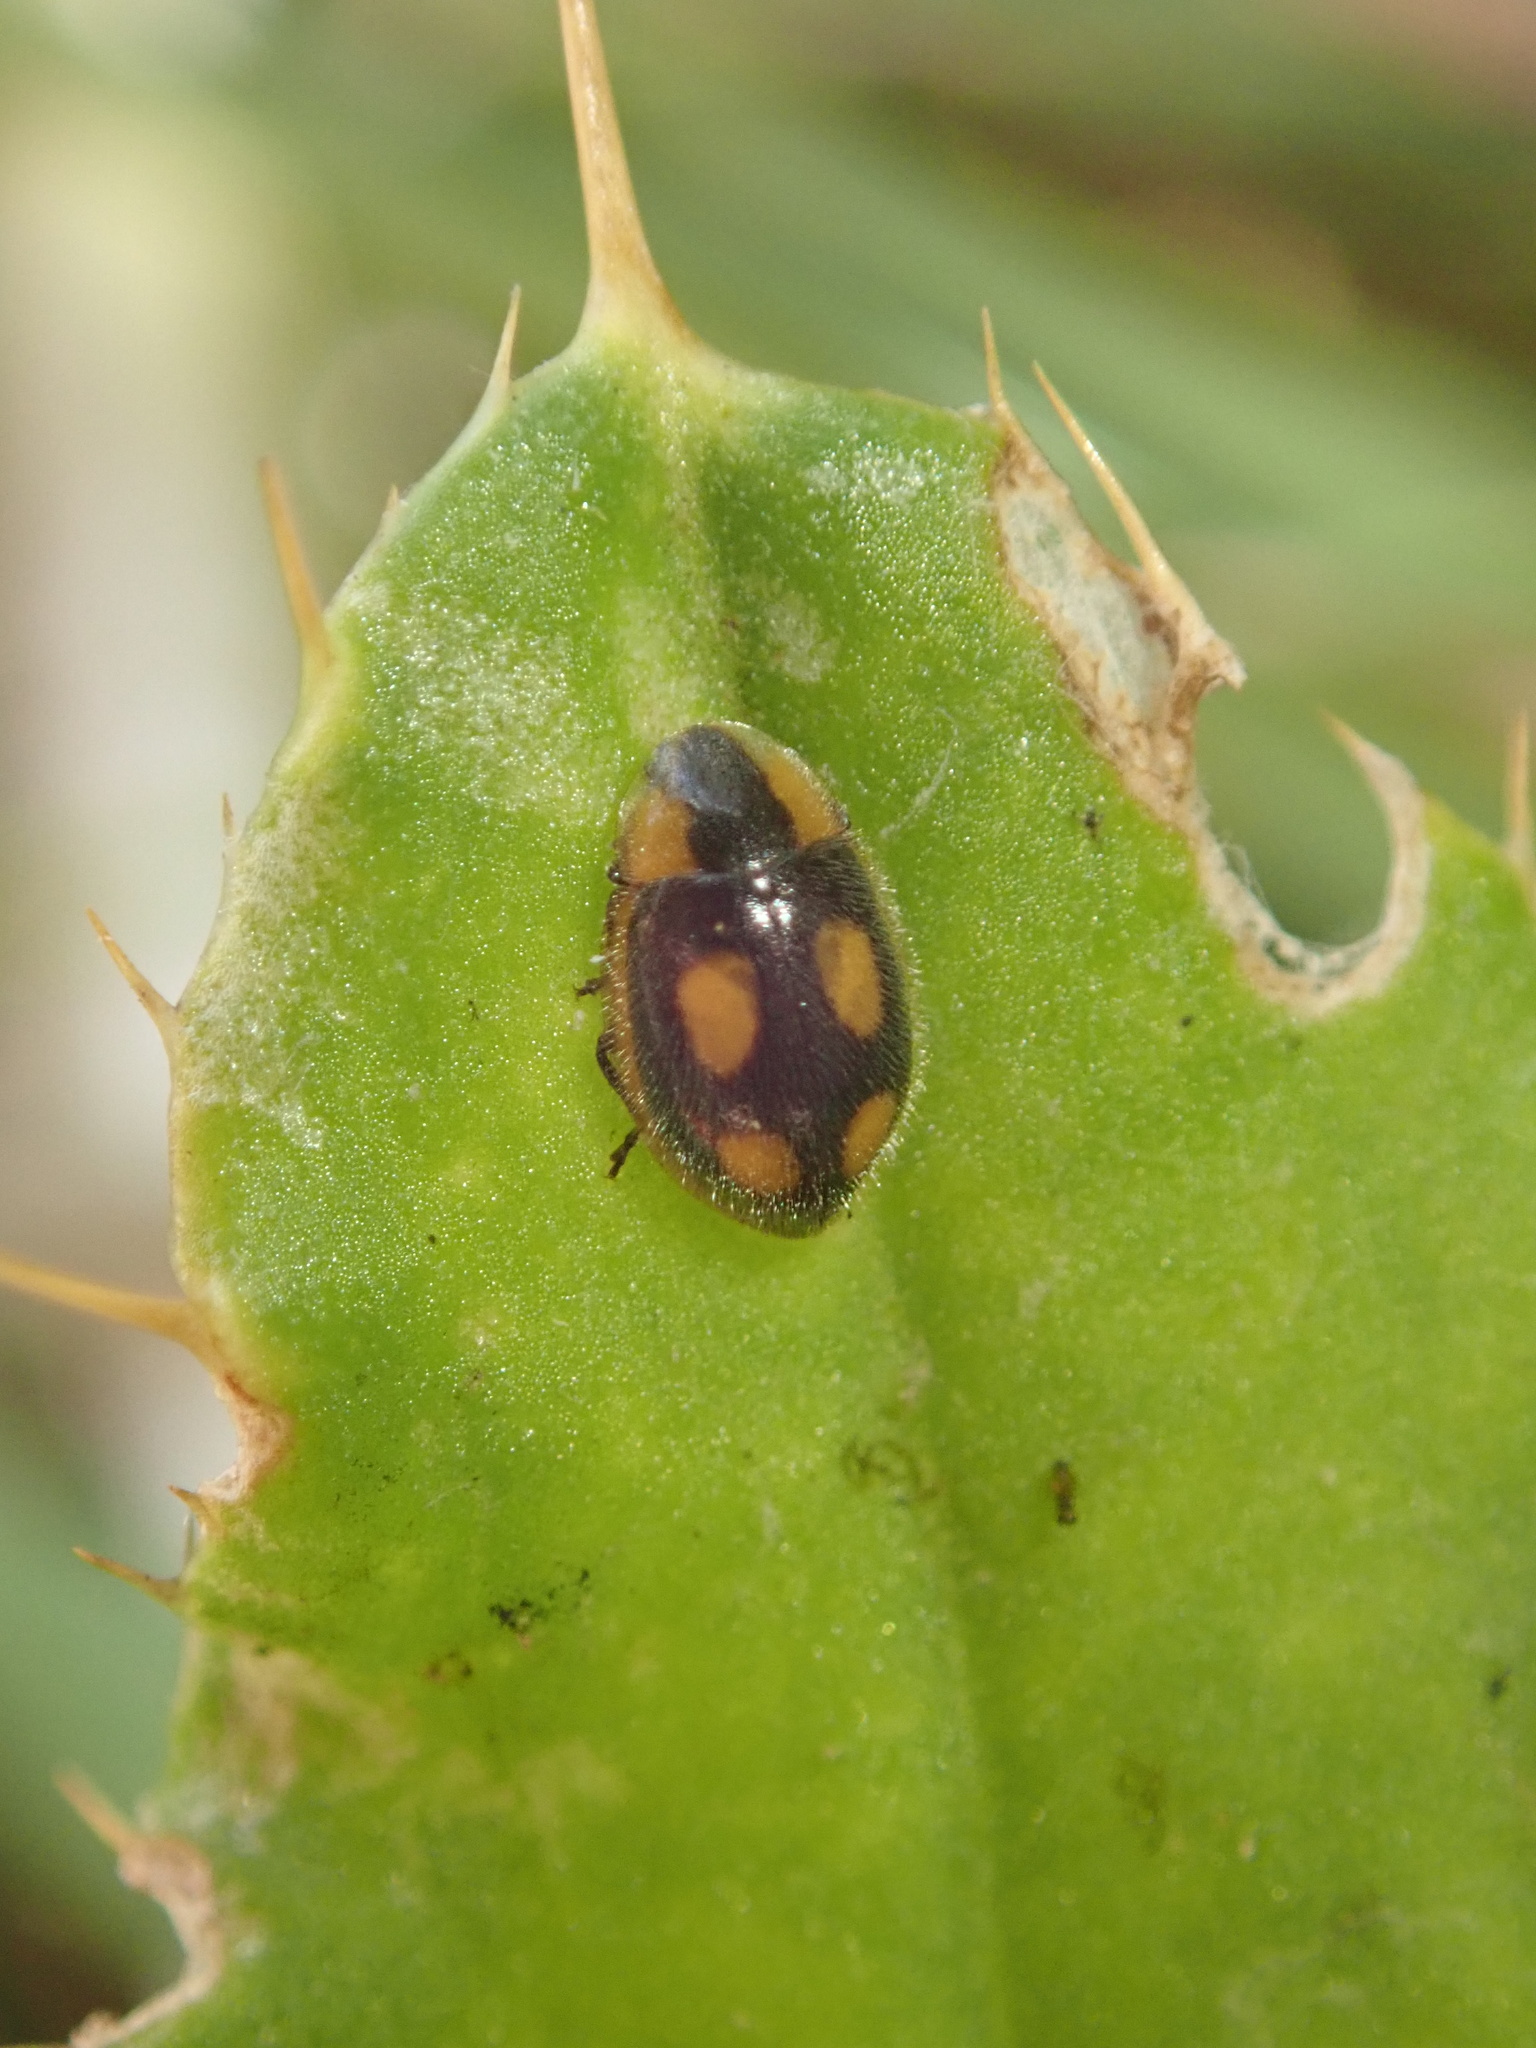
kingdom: Animalia
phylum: Arthropoda
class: Insecta
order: Coleoptera
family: Coccinellidae
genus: Hoangus
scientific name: Hoangus
